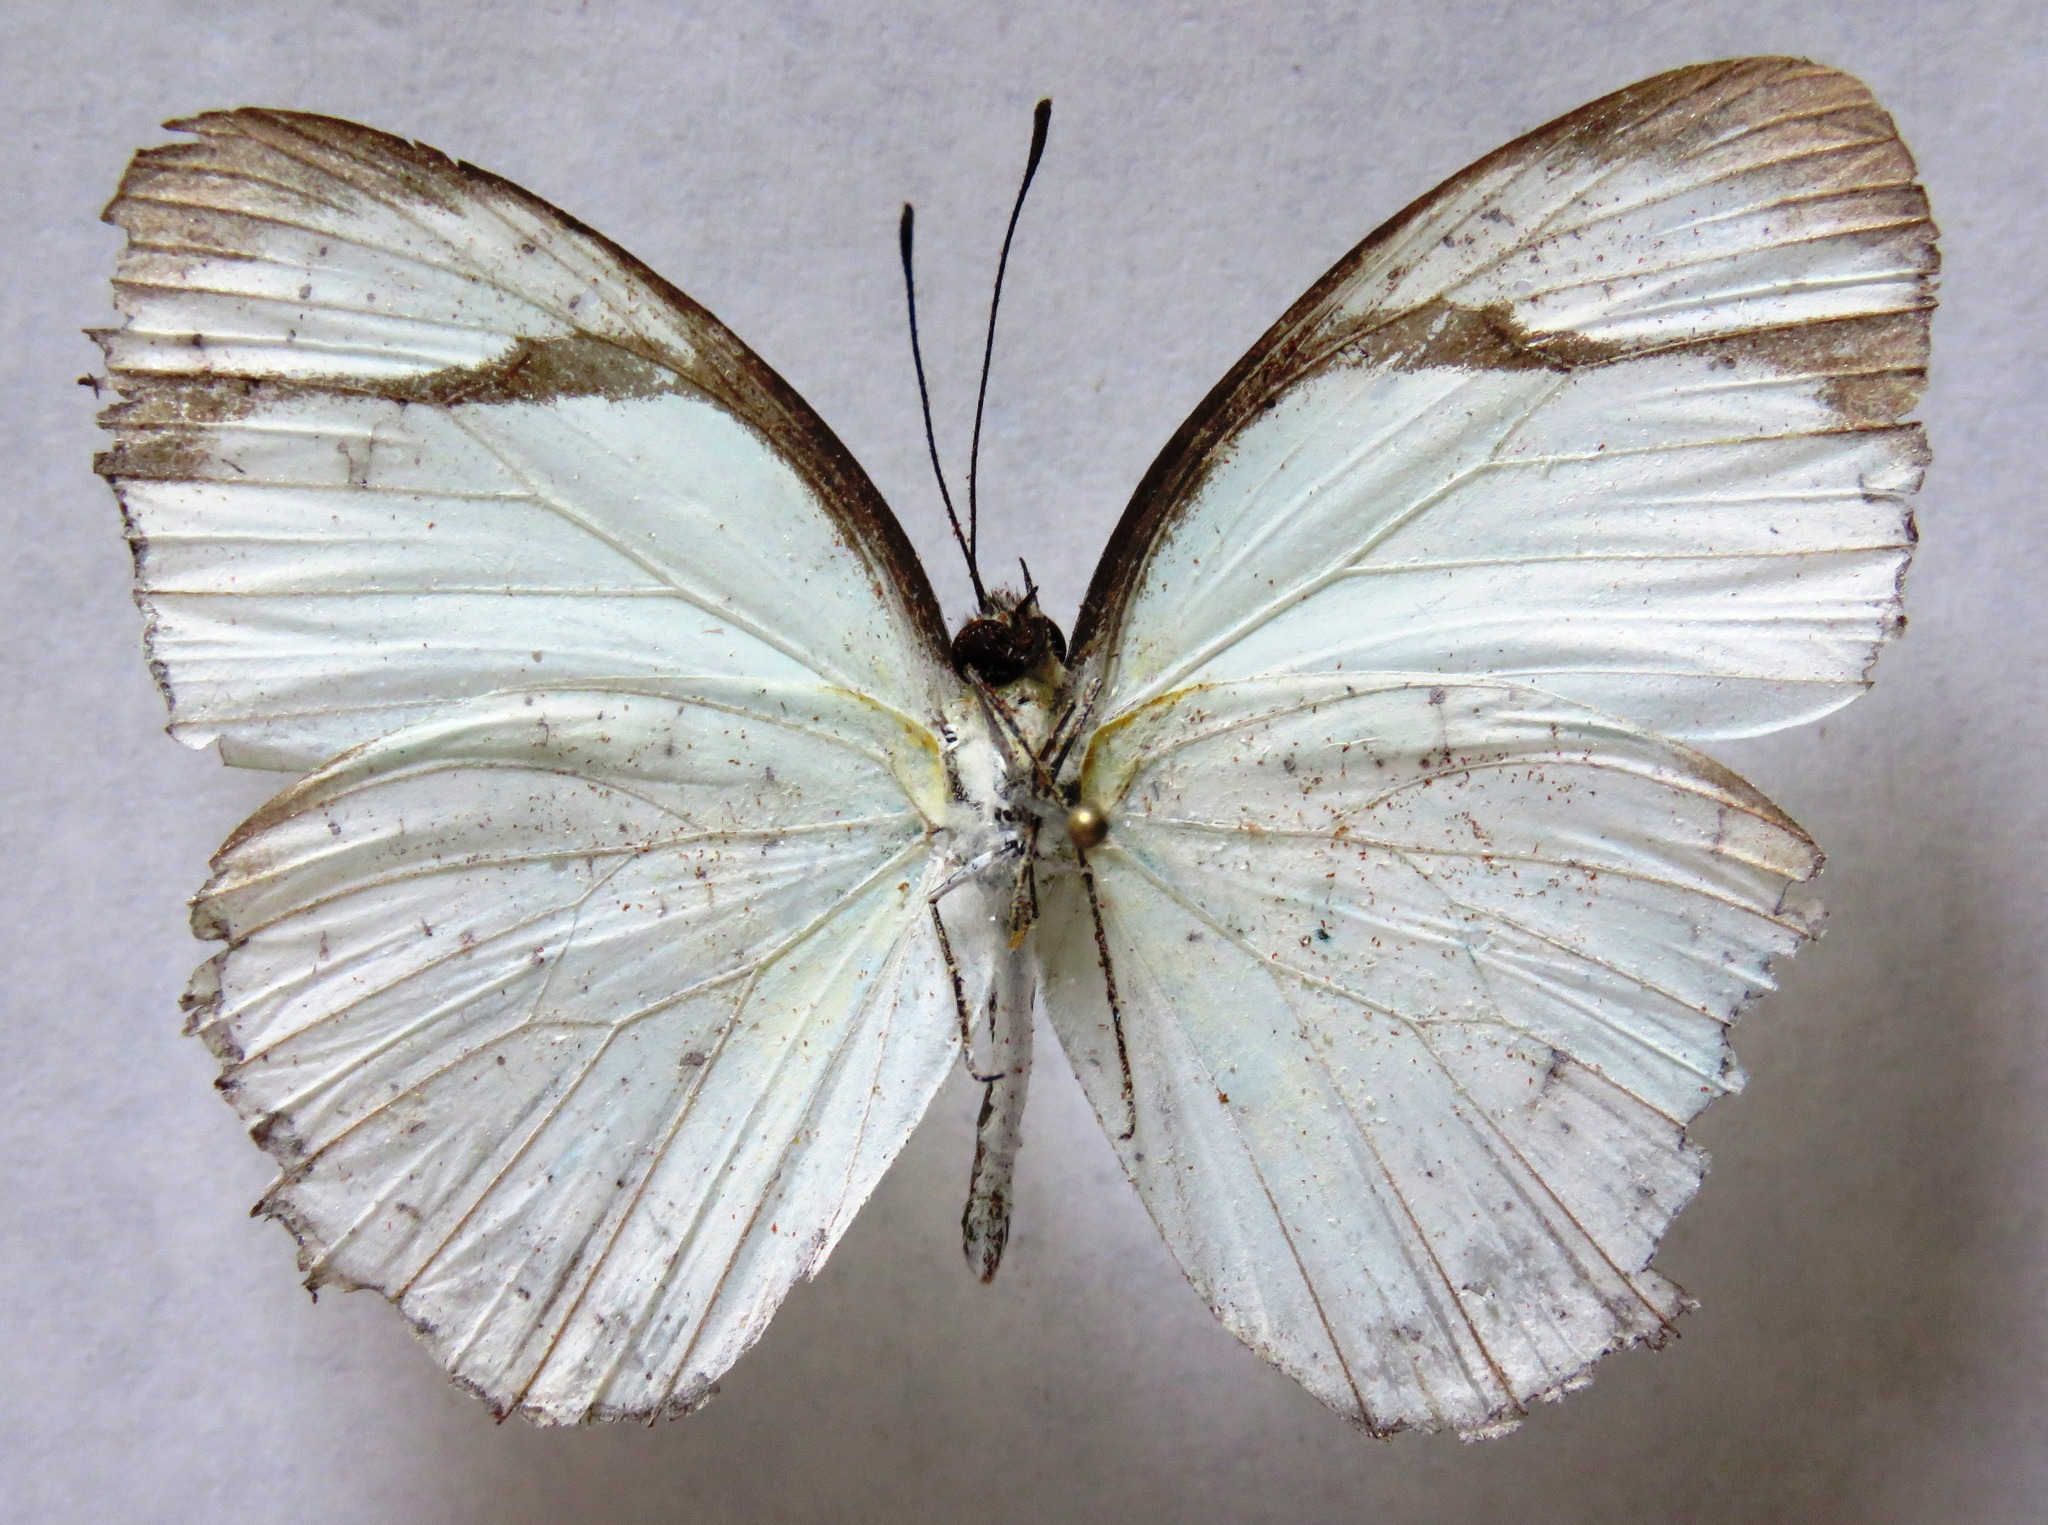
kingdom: Animalia
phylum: Arthropoda
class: Insecta
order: Lepidoptera
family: Pieridae
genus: Itaballia
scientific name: Itaballia demophile
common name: Cross-barred white
